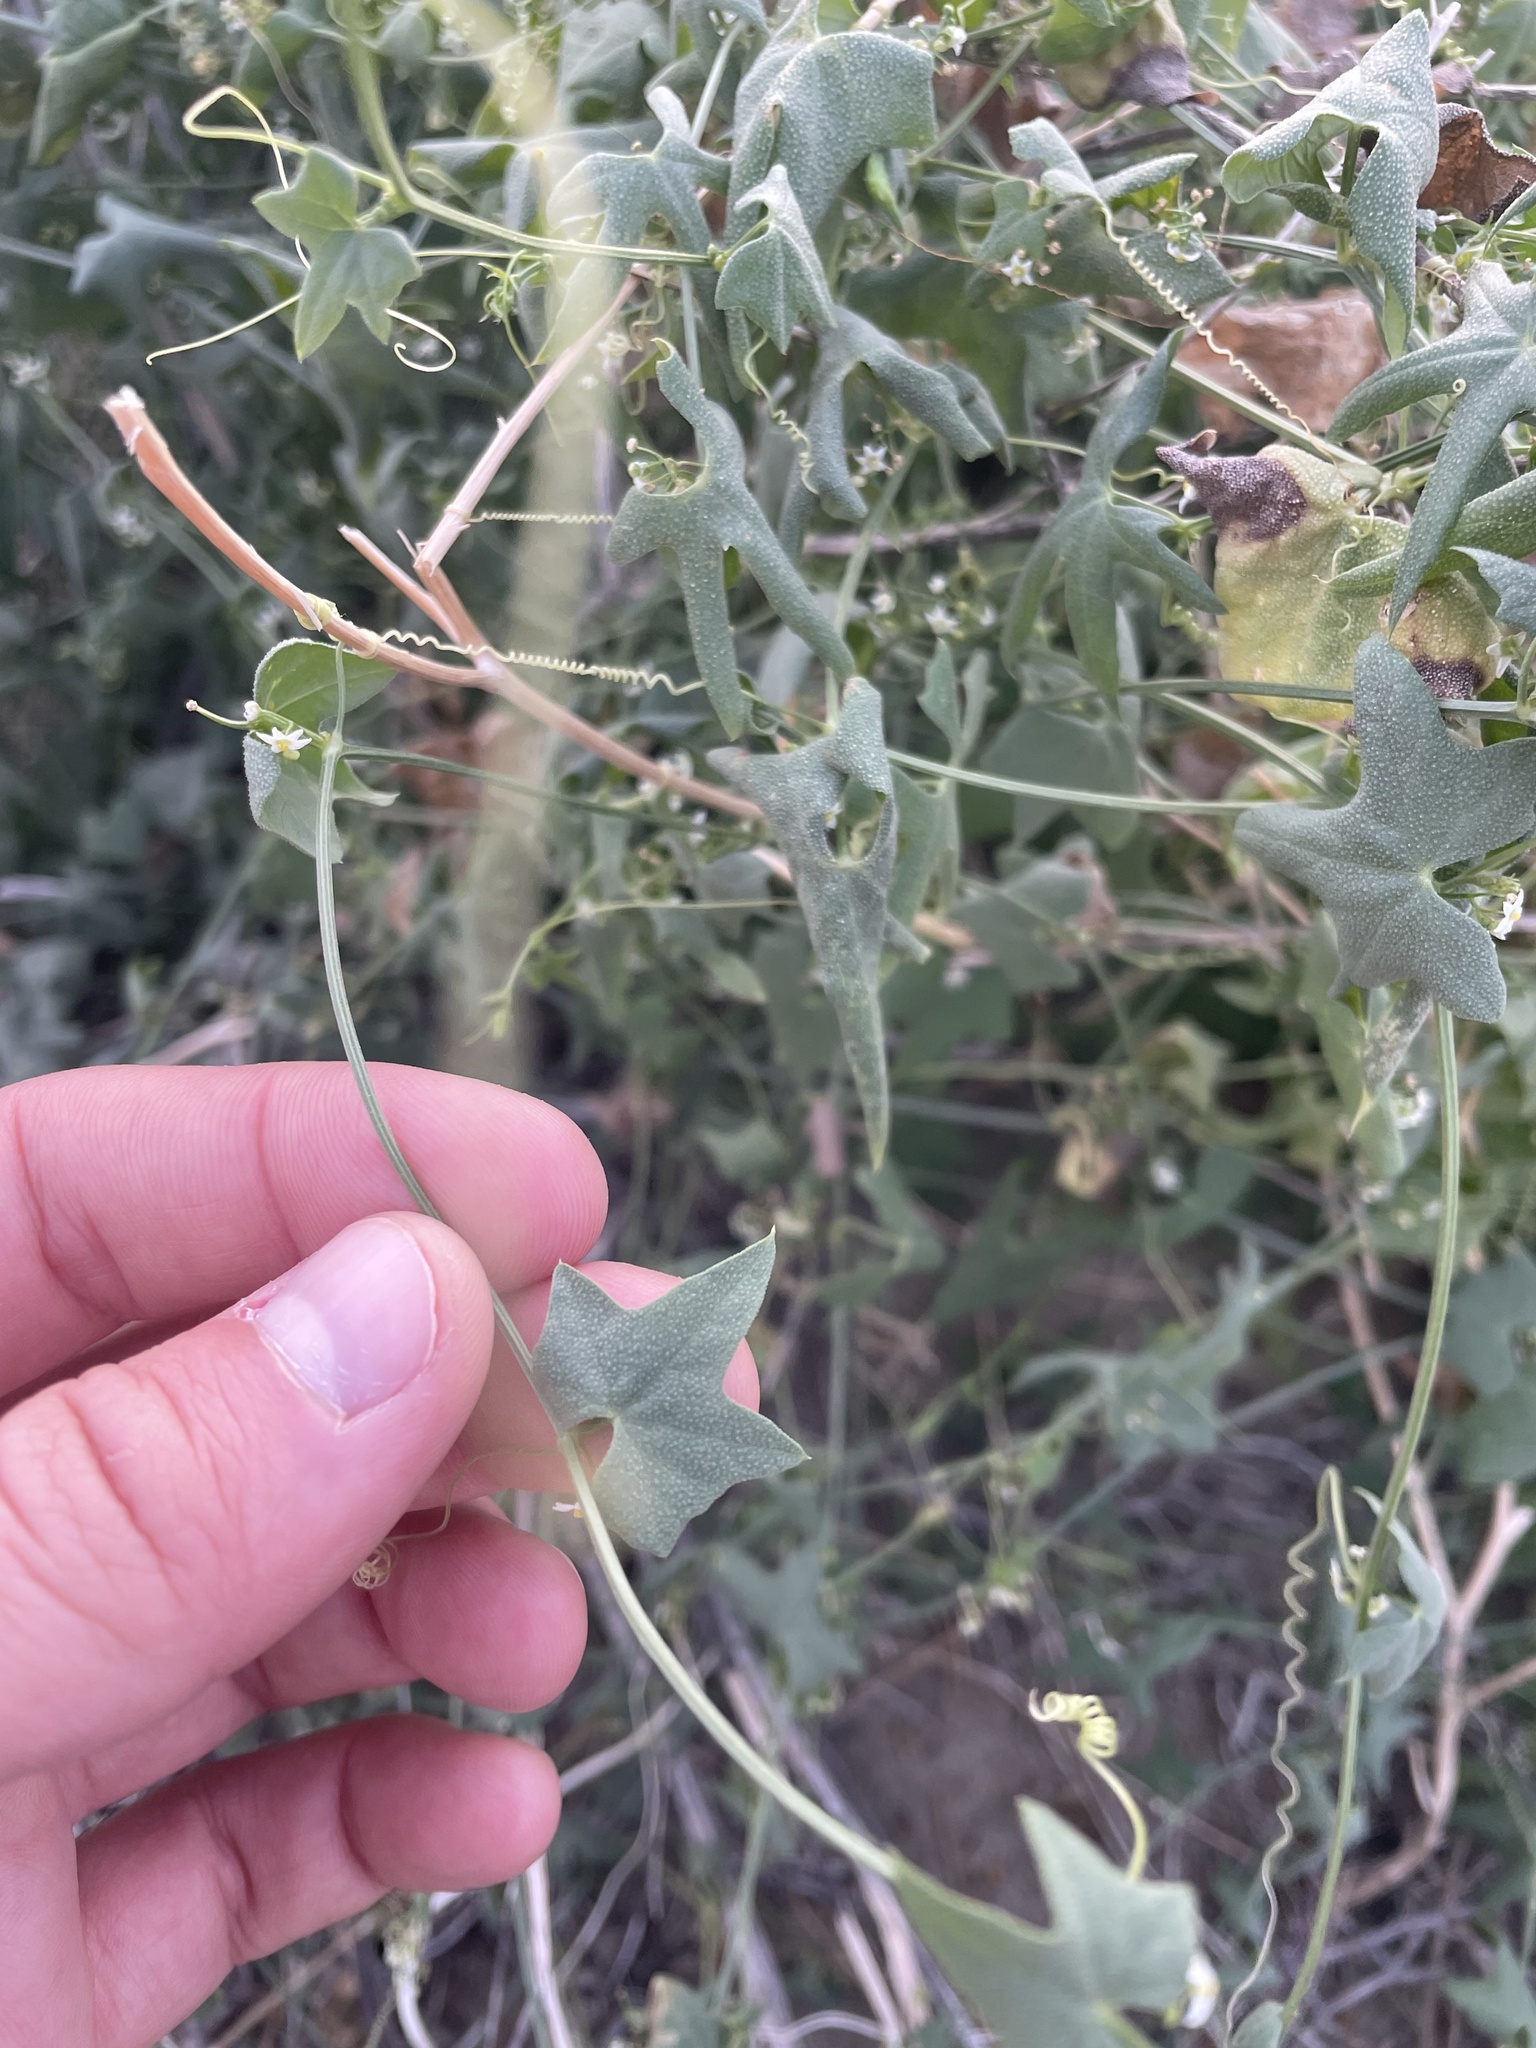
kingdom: Plantae
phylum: Tracheophyta
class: Magnoliopsida
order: Cucurbitales
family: Cucurbitaceae
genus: Echinopepon
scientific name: Echinopepon bigelovii
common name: Desert starvine
